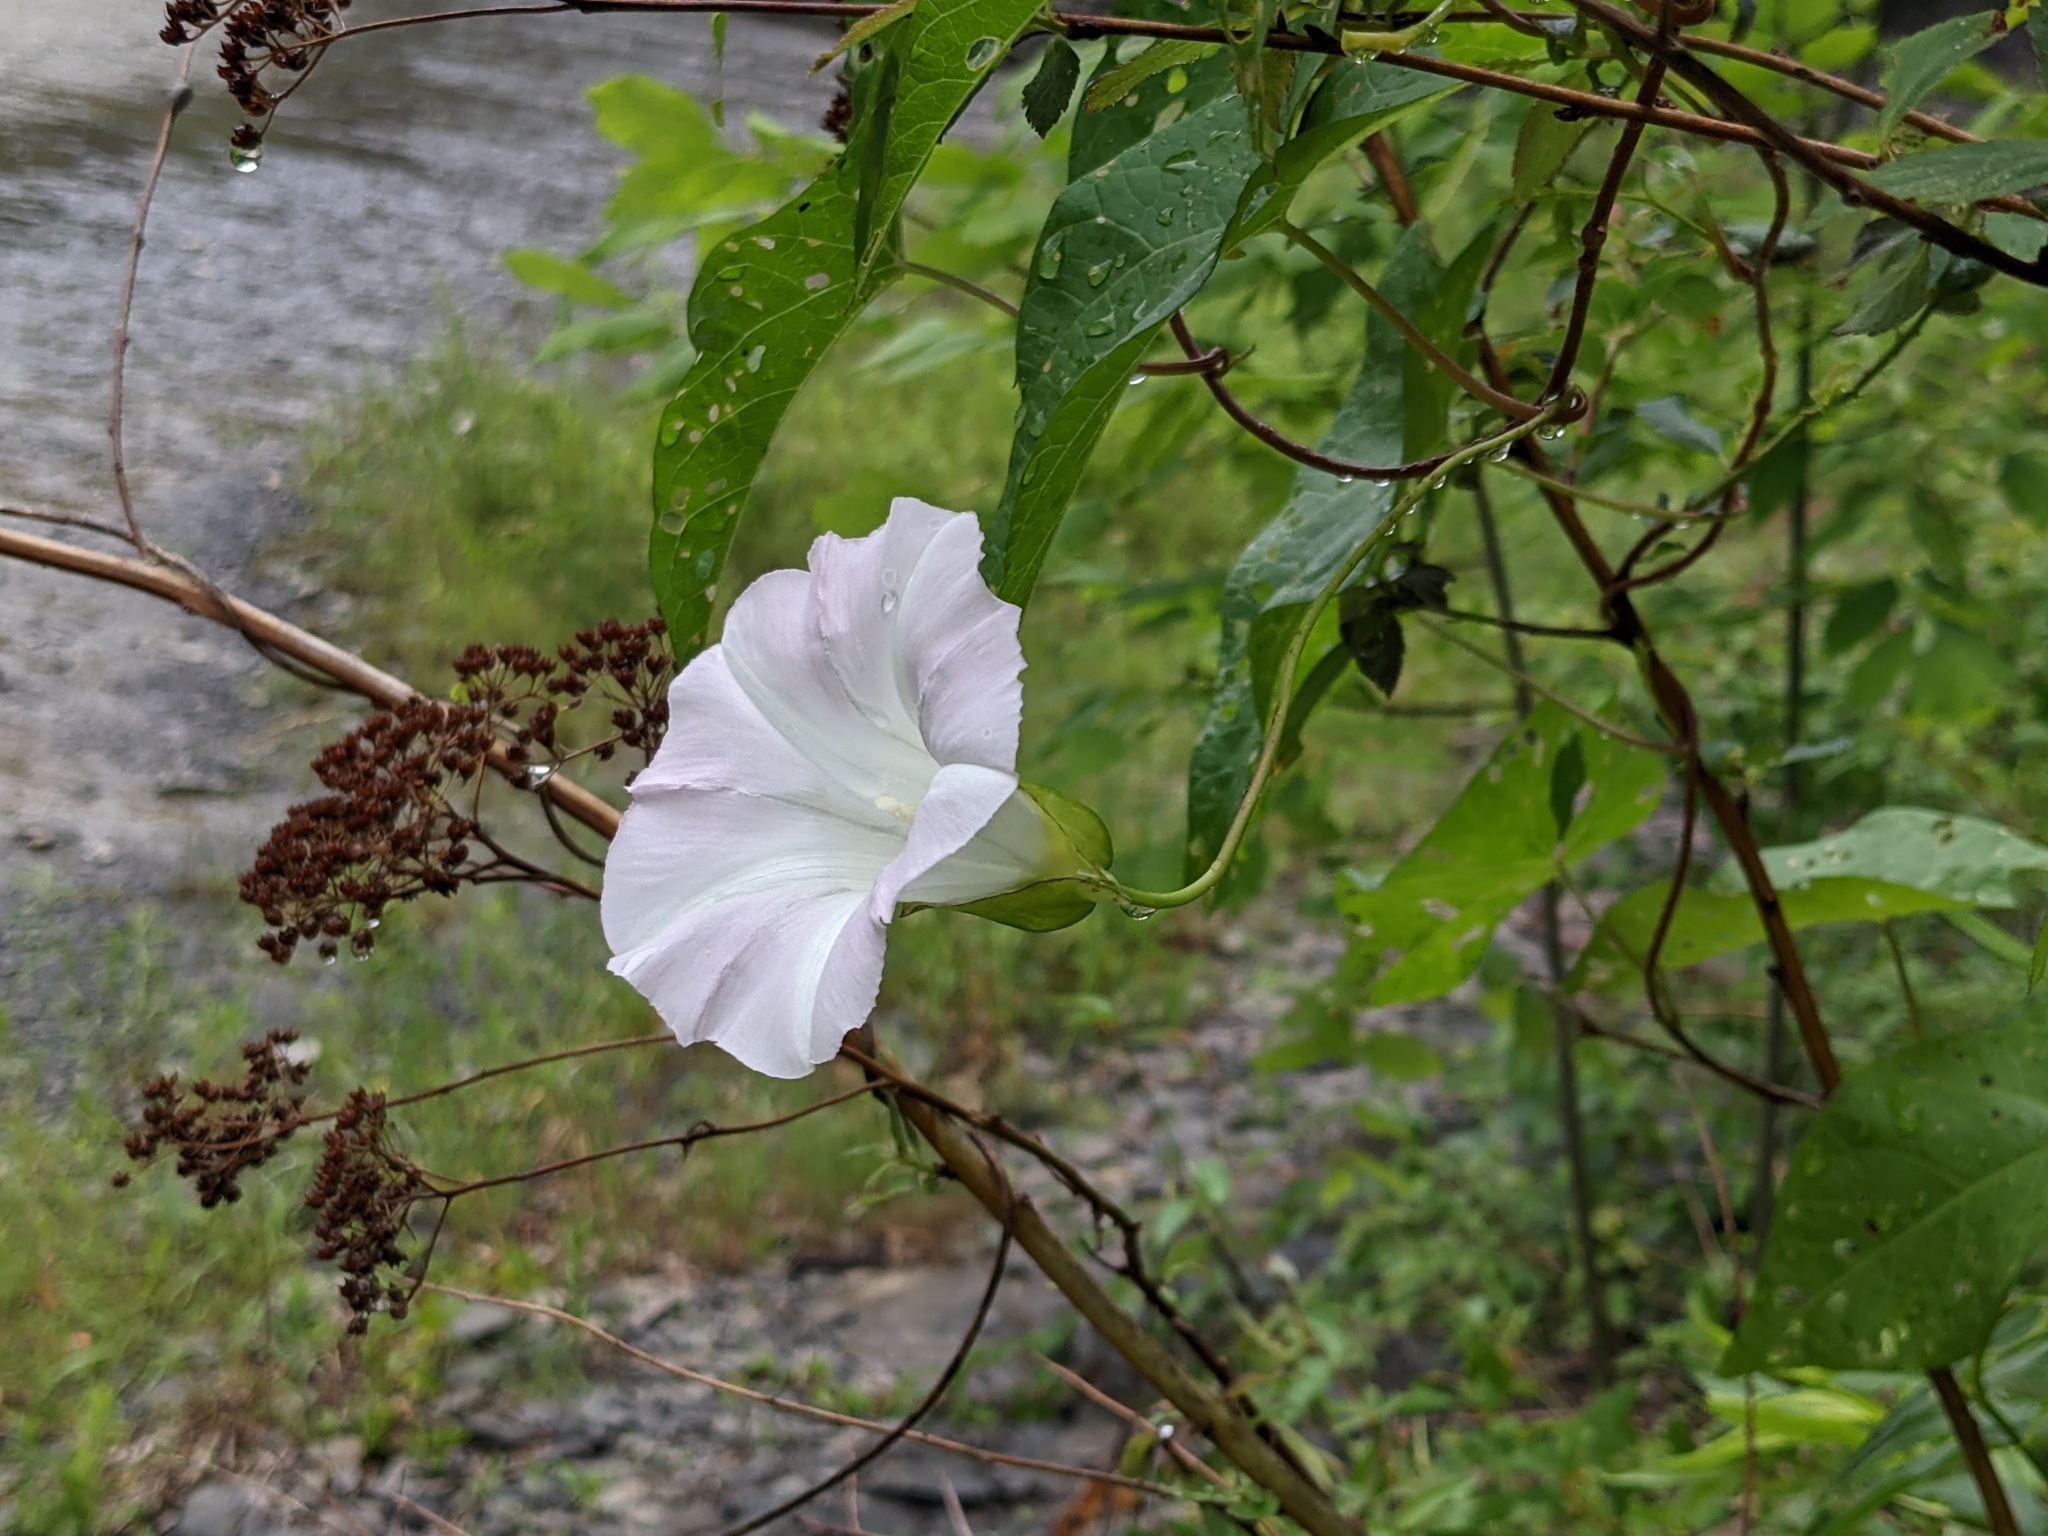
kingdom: Plantae
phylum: Tracheophyta
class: Magnoliopsida
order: Solanales
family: Convolvulaceae
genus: Calystegia
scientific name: Calystegia sepium
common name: Hedge bindweed
